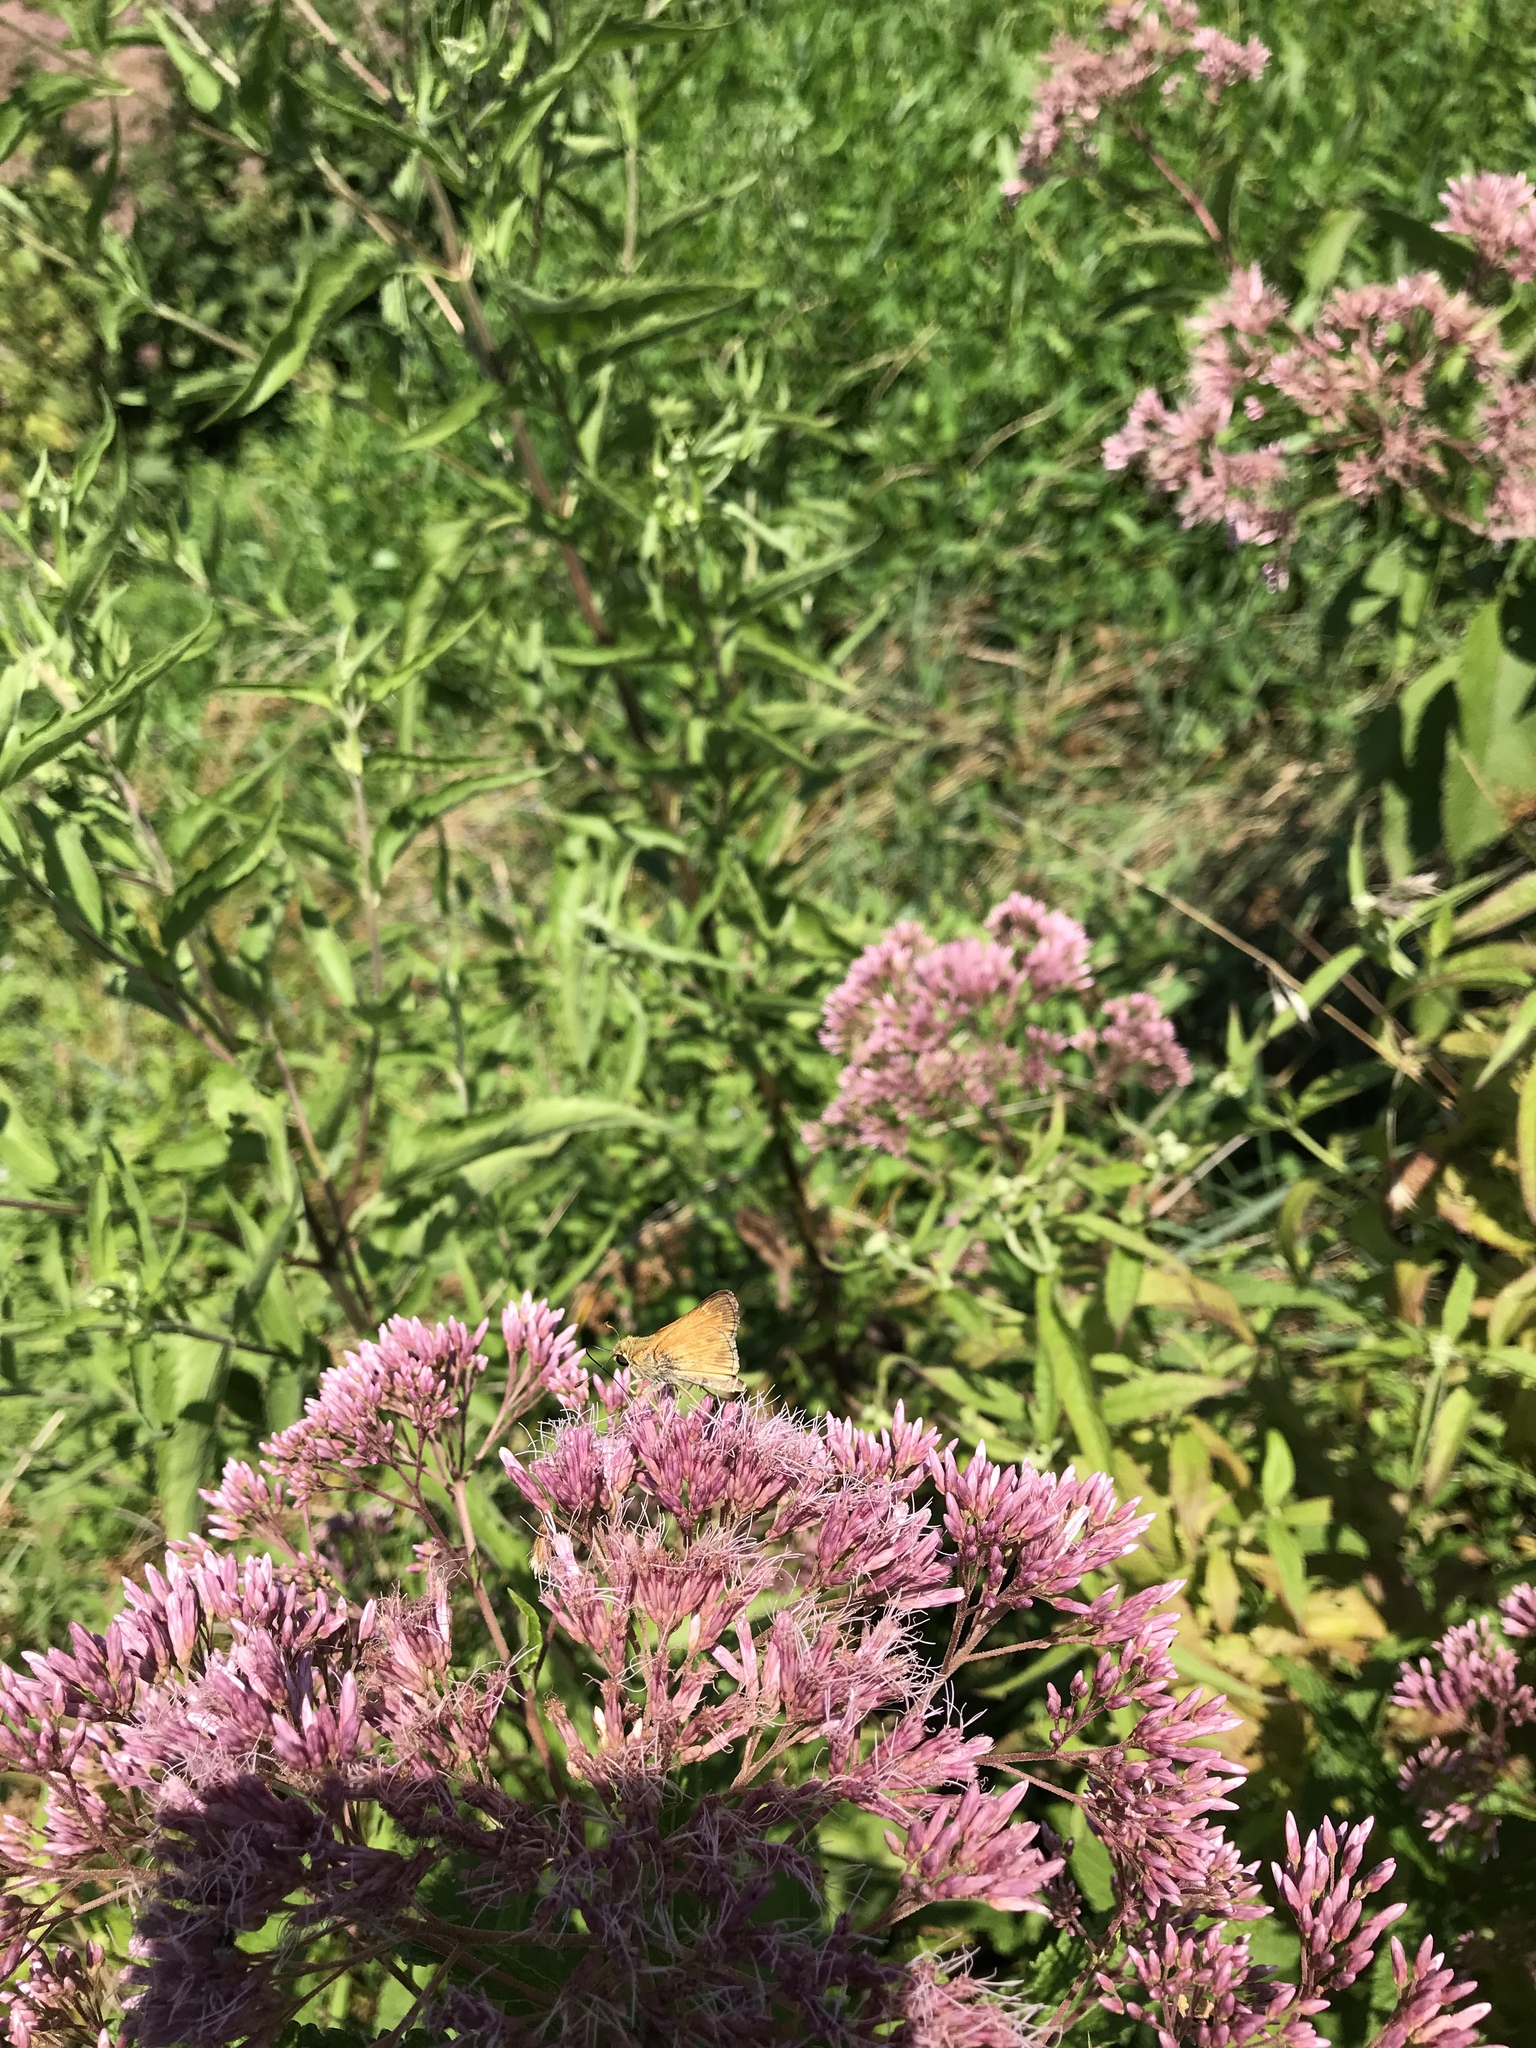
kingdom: Animalia
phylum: Arthropoda
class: Insecta
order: Lepidoptera
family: Hesperiidae
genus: Atalopedes
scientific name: Atalopedes
